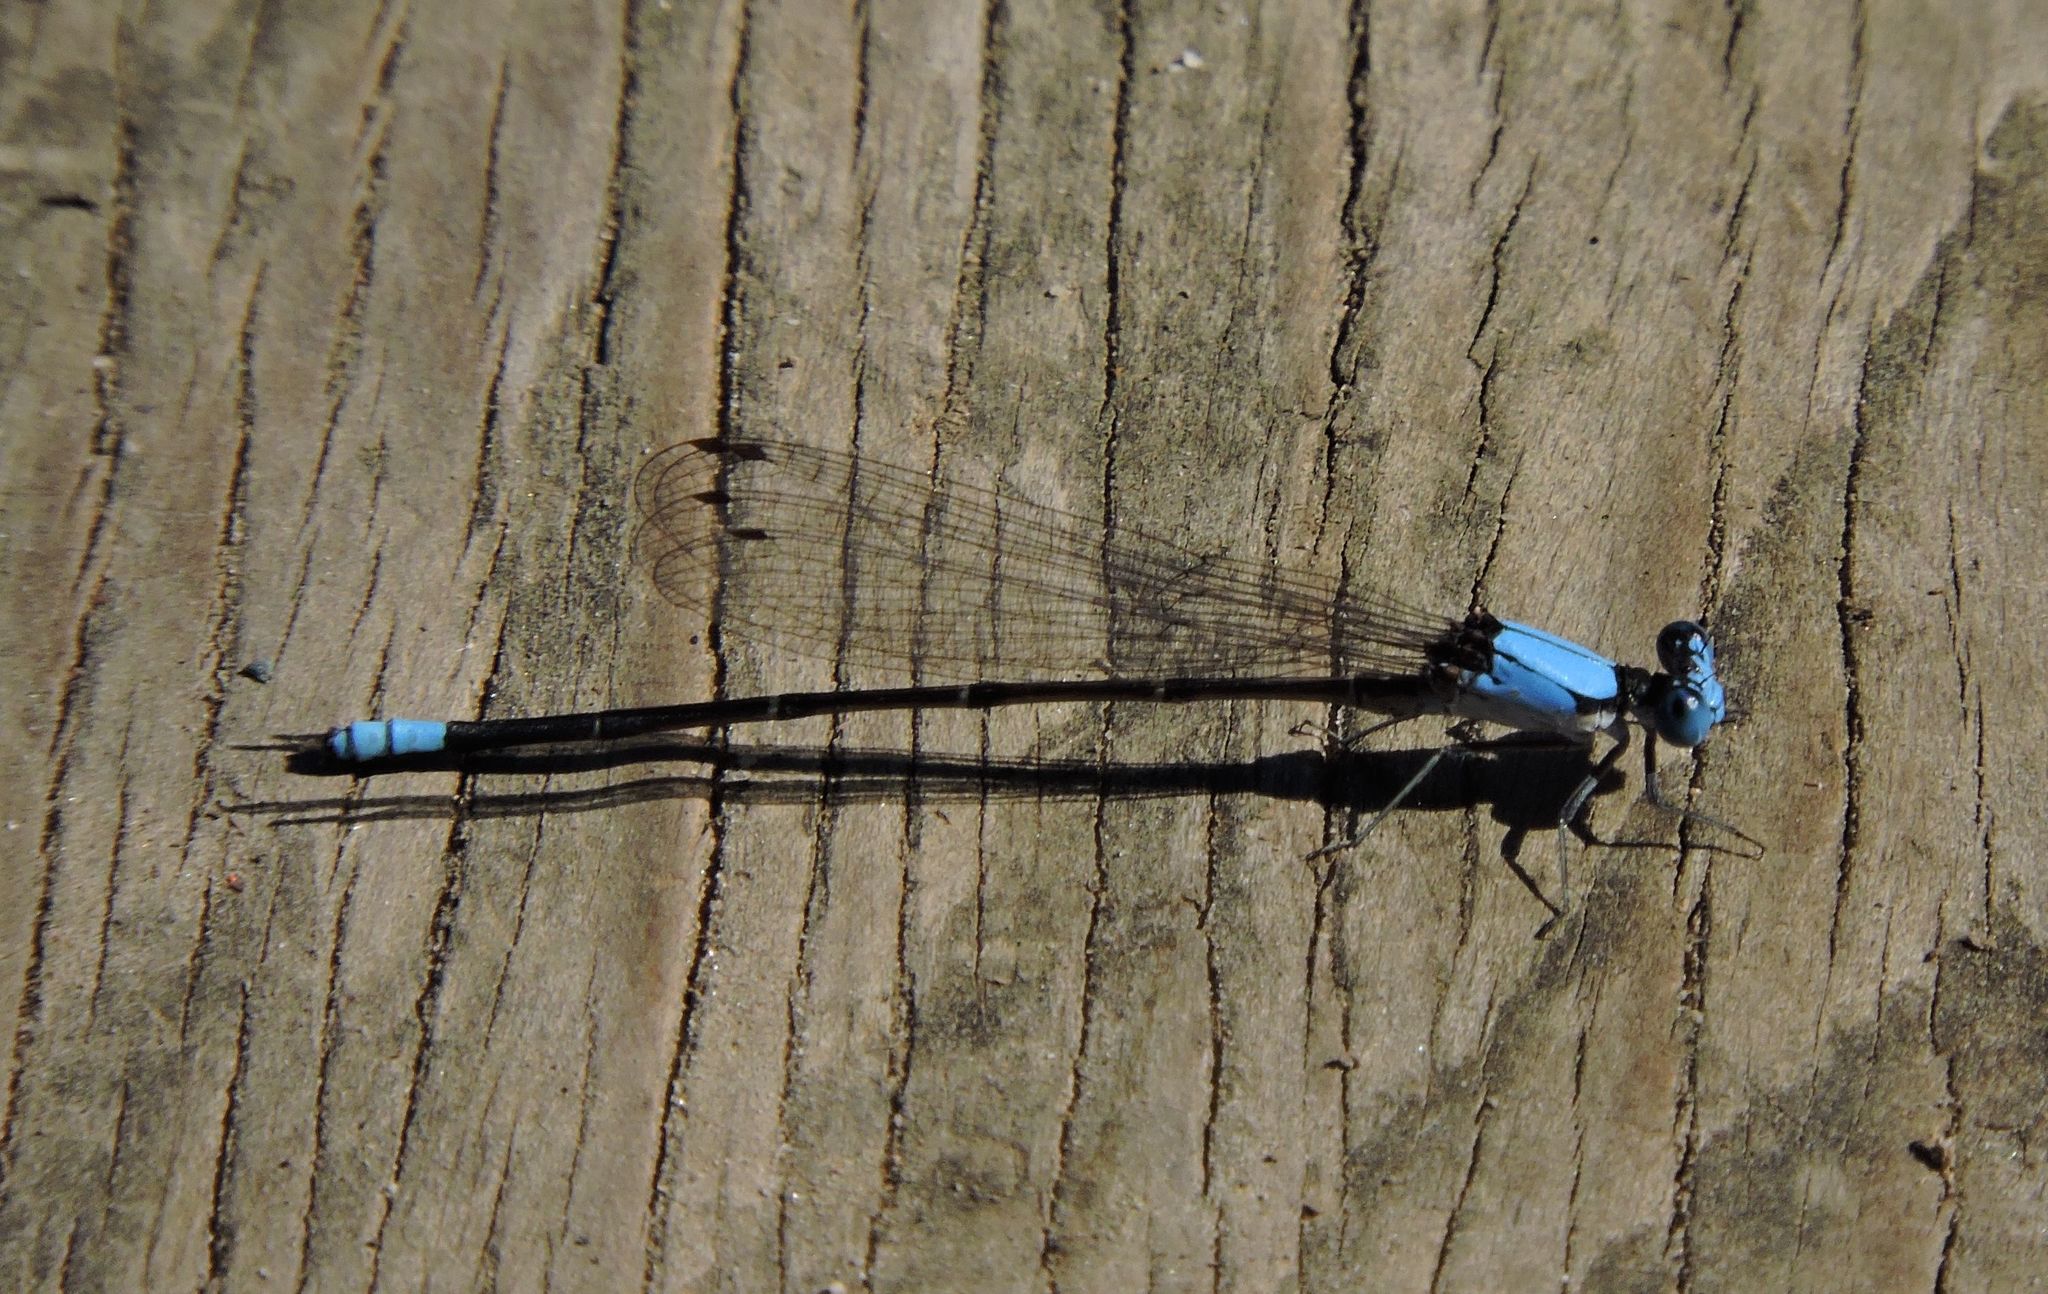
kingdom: Animalia
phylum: Arthropoda
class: Insecta
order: Odonata
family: Coenagrionidae
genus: Argia
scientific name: Argia apicalis
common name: Blue-fronted dancer
